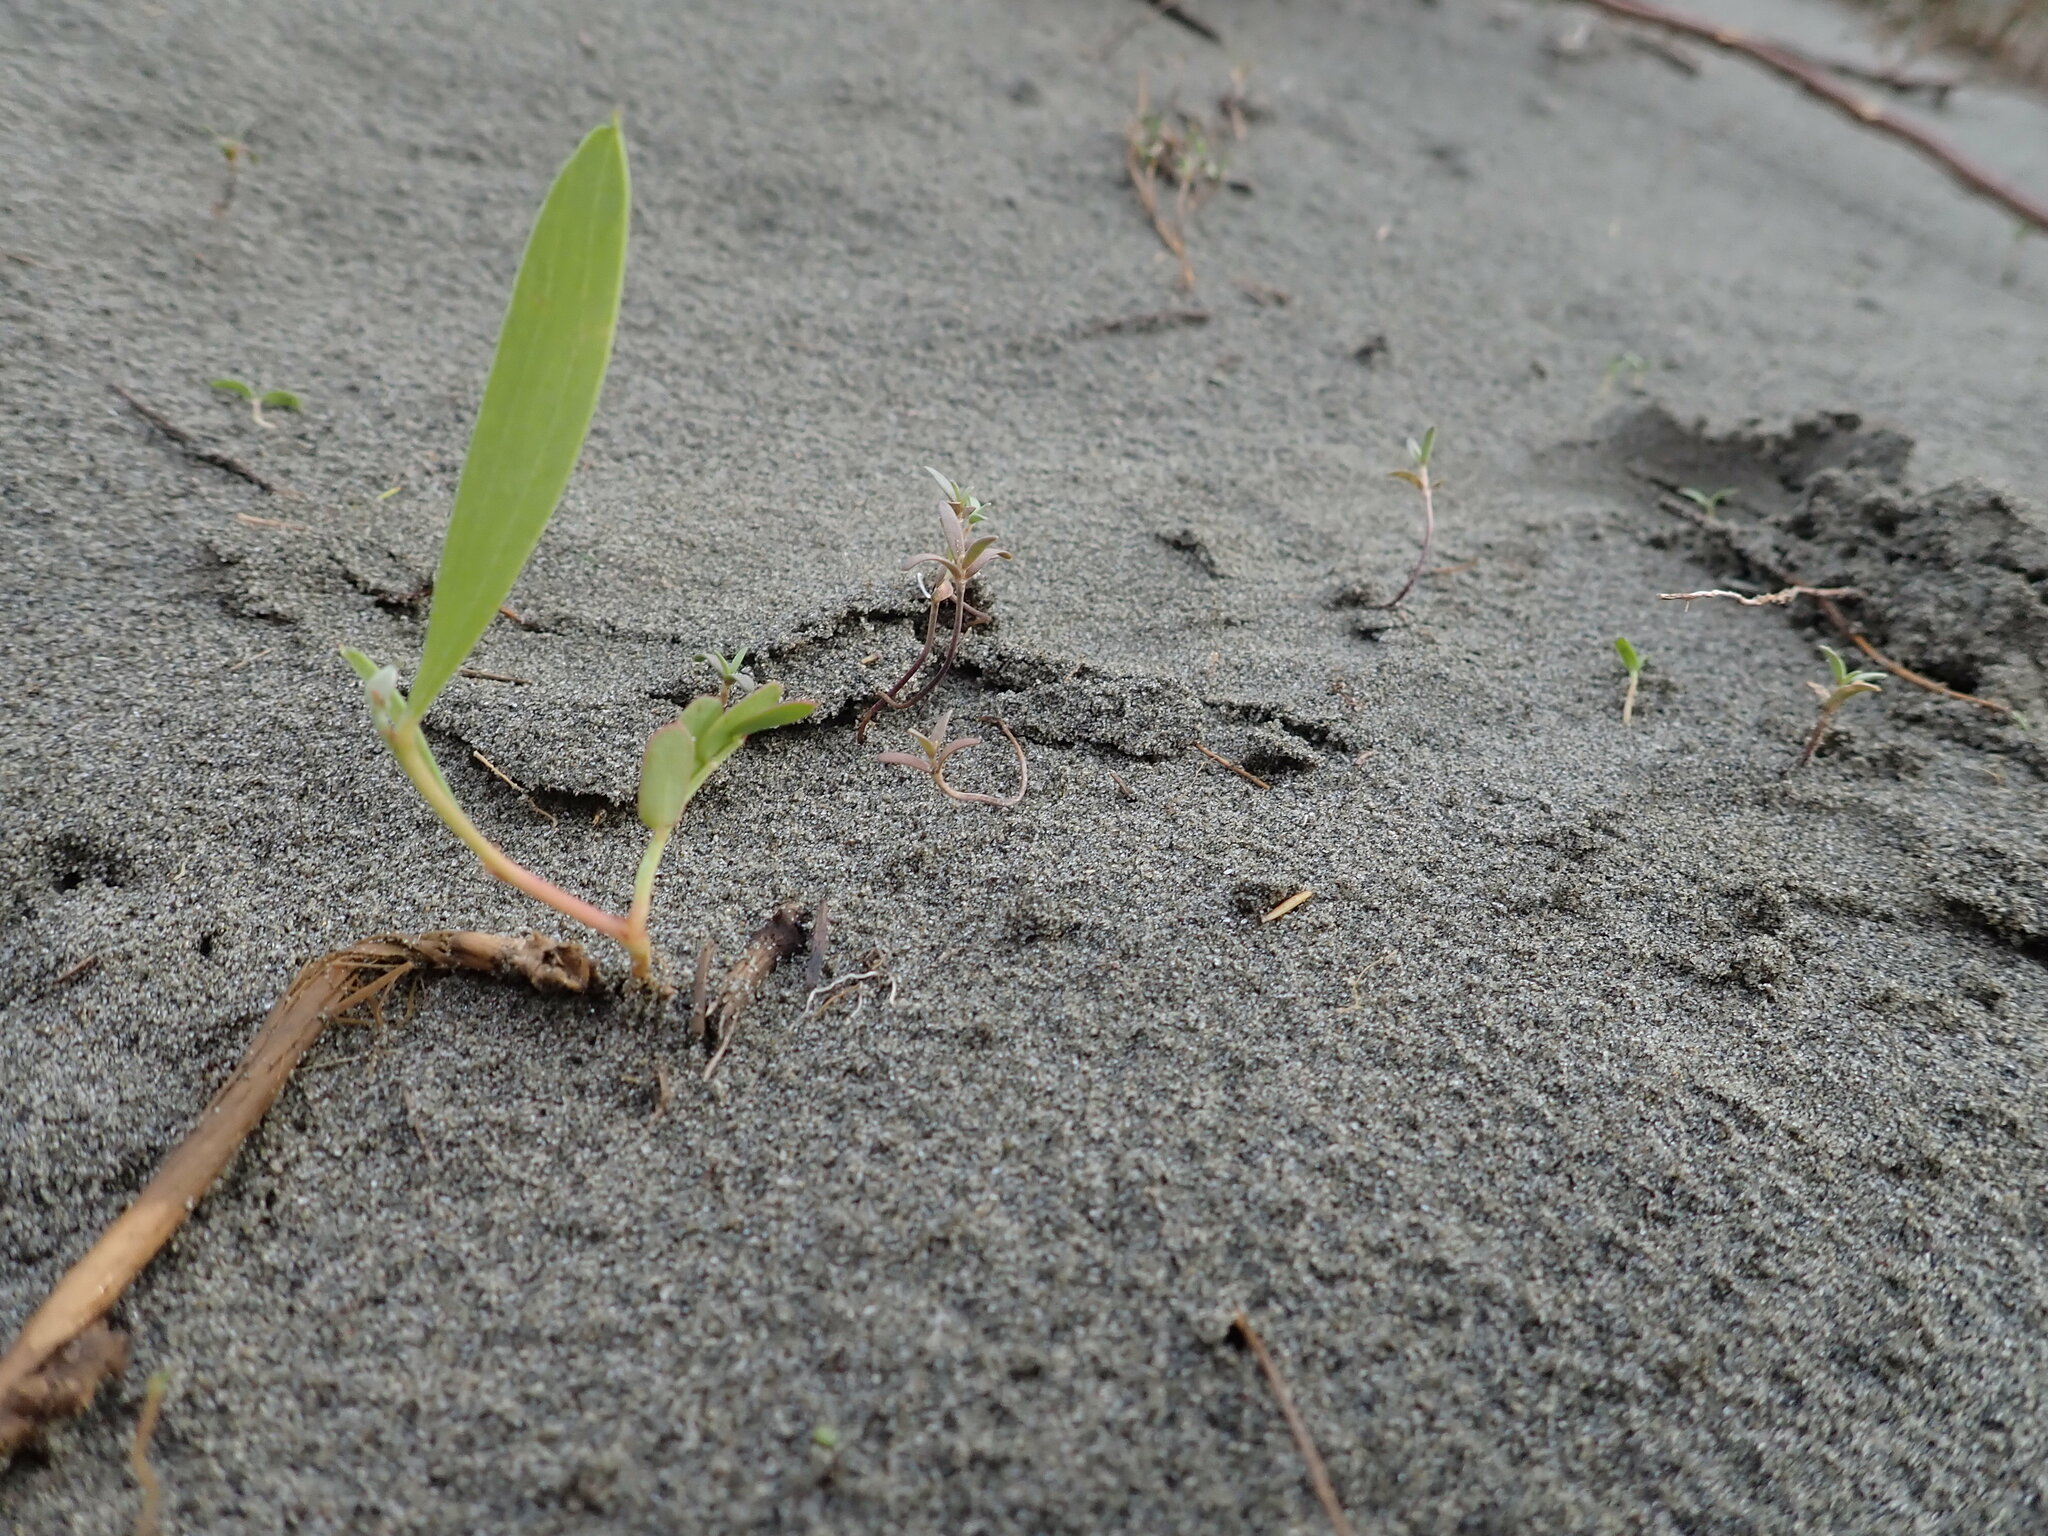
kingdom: Plantae
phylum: Tracheophyta
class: Magnoliopsida
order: Fabales
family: Fabaceae
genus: Acacia
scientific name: Acacia longifolia
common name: Sydney golden wattle
